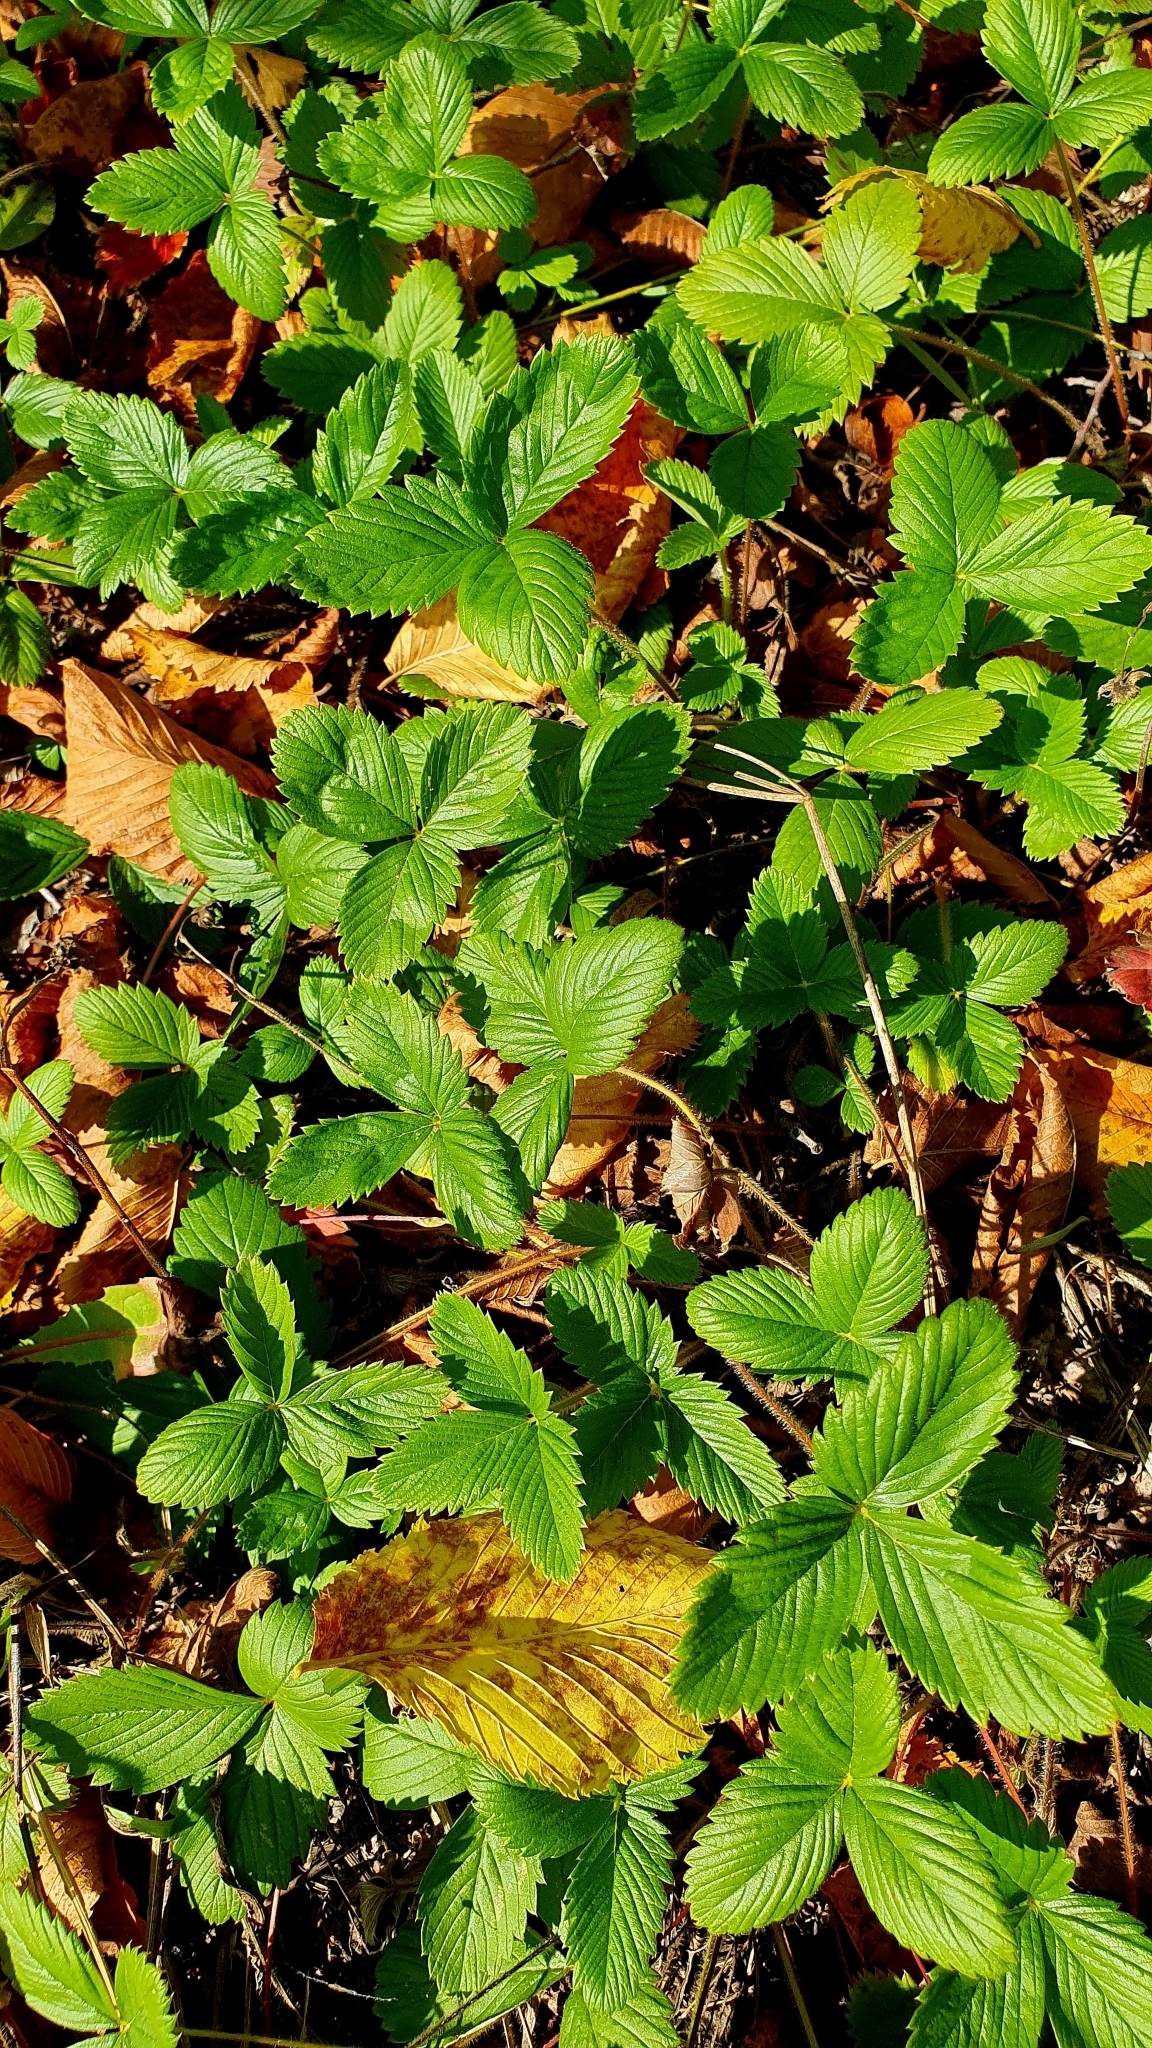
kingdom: Plantae
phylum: Tracheophyta
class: Magnoliopsida
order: Rosales
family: Rosaceae
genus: Fragaria
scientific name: Fragaria viridis
